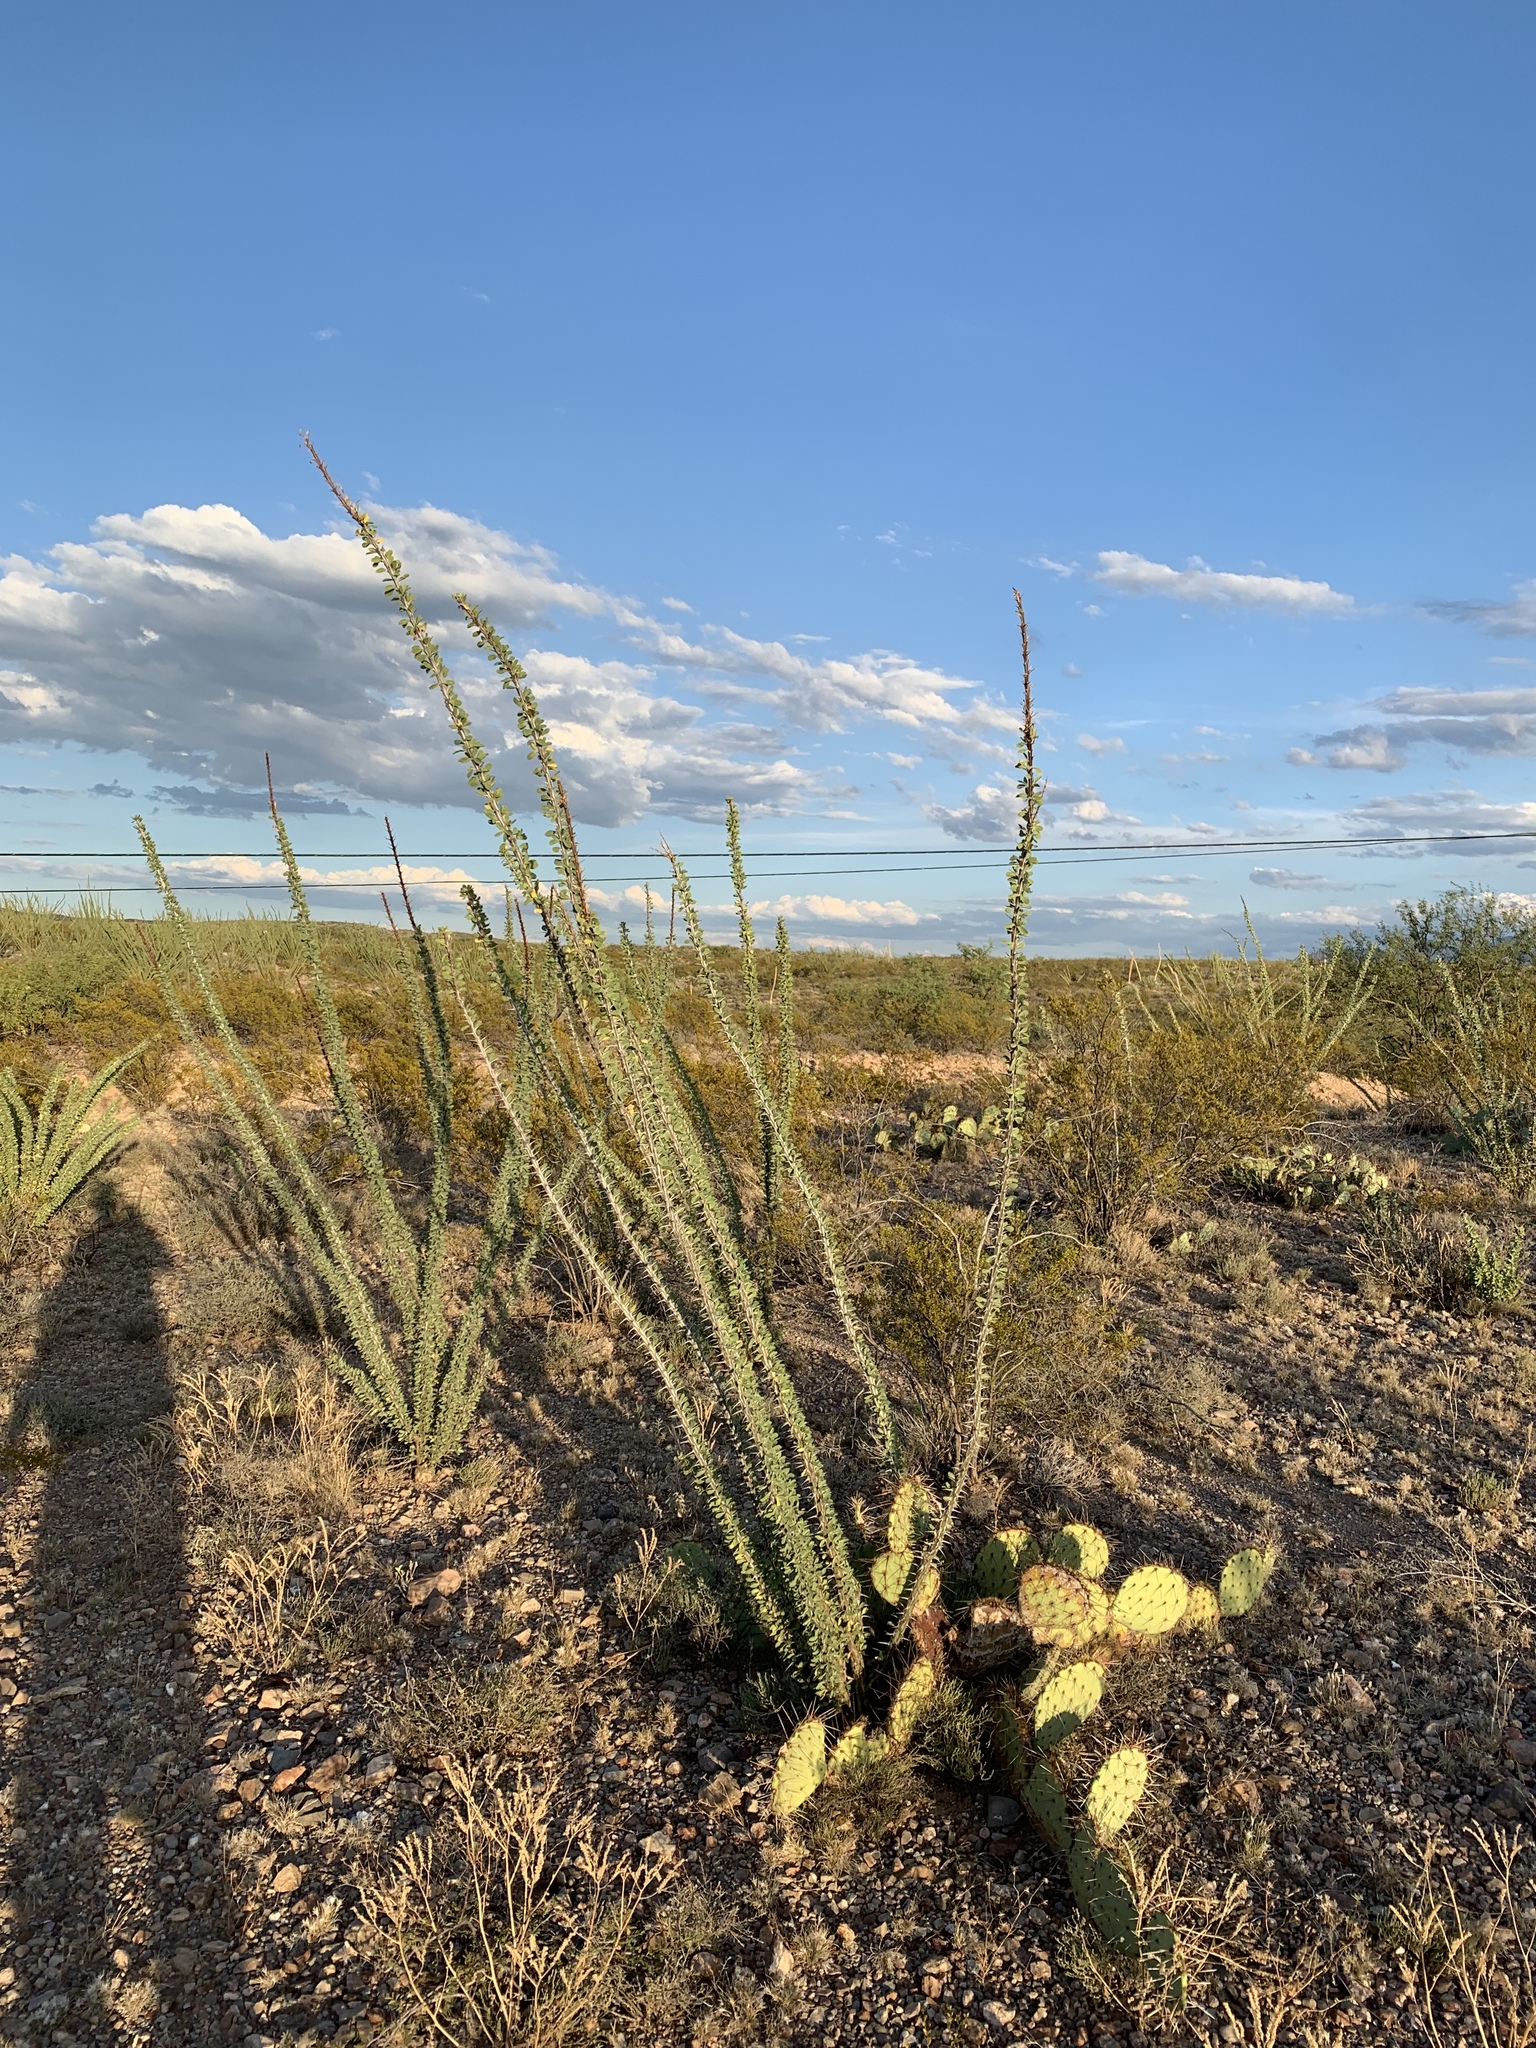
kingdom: Plantae
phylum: Tracheophyta
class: Magnoliopsida
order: Ericales
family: Fouquieriaceae
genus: Fouquieria
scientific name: Fouquieria splendens
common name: Vine-cactus
